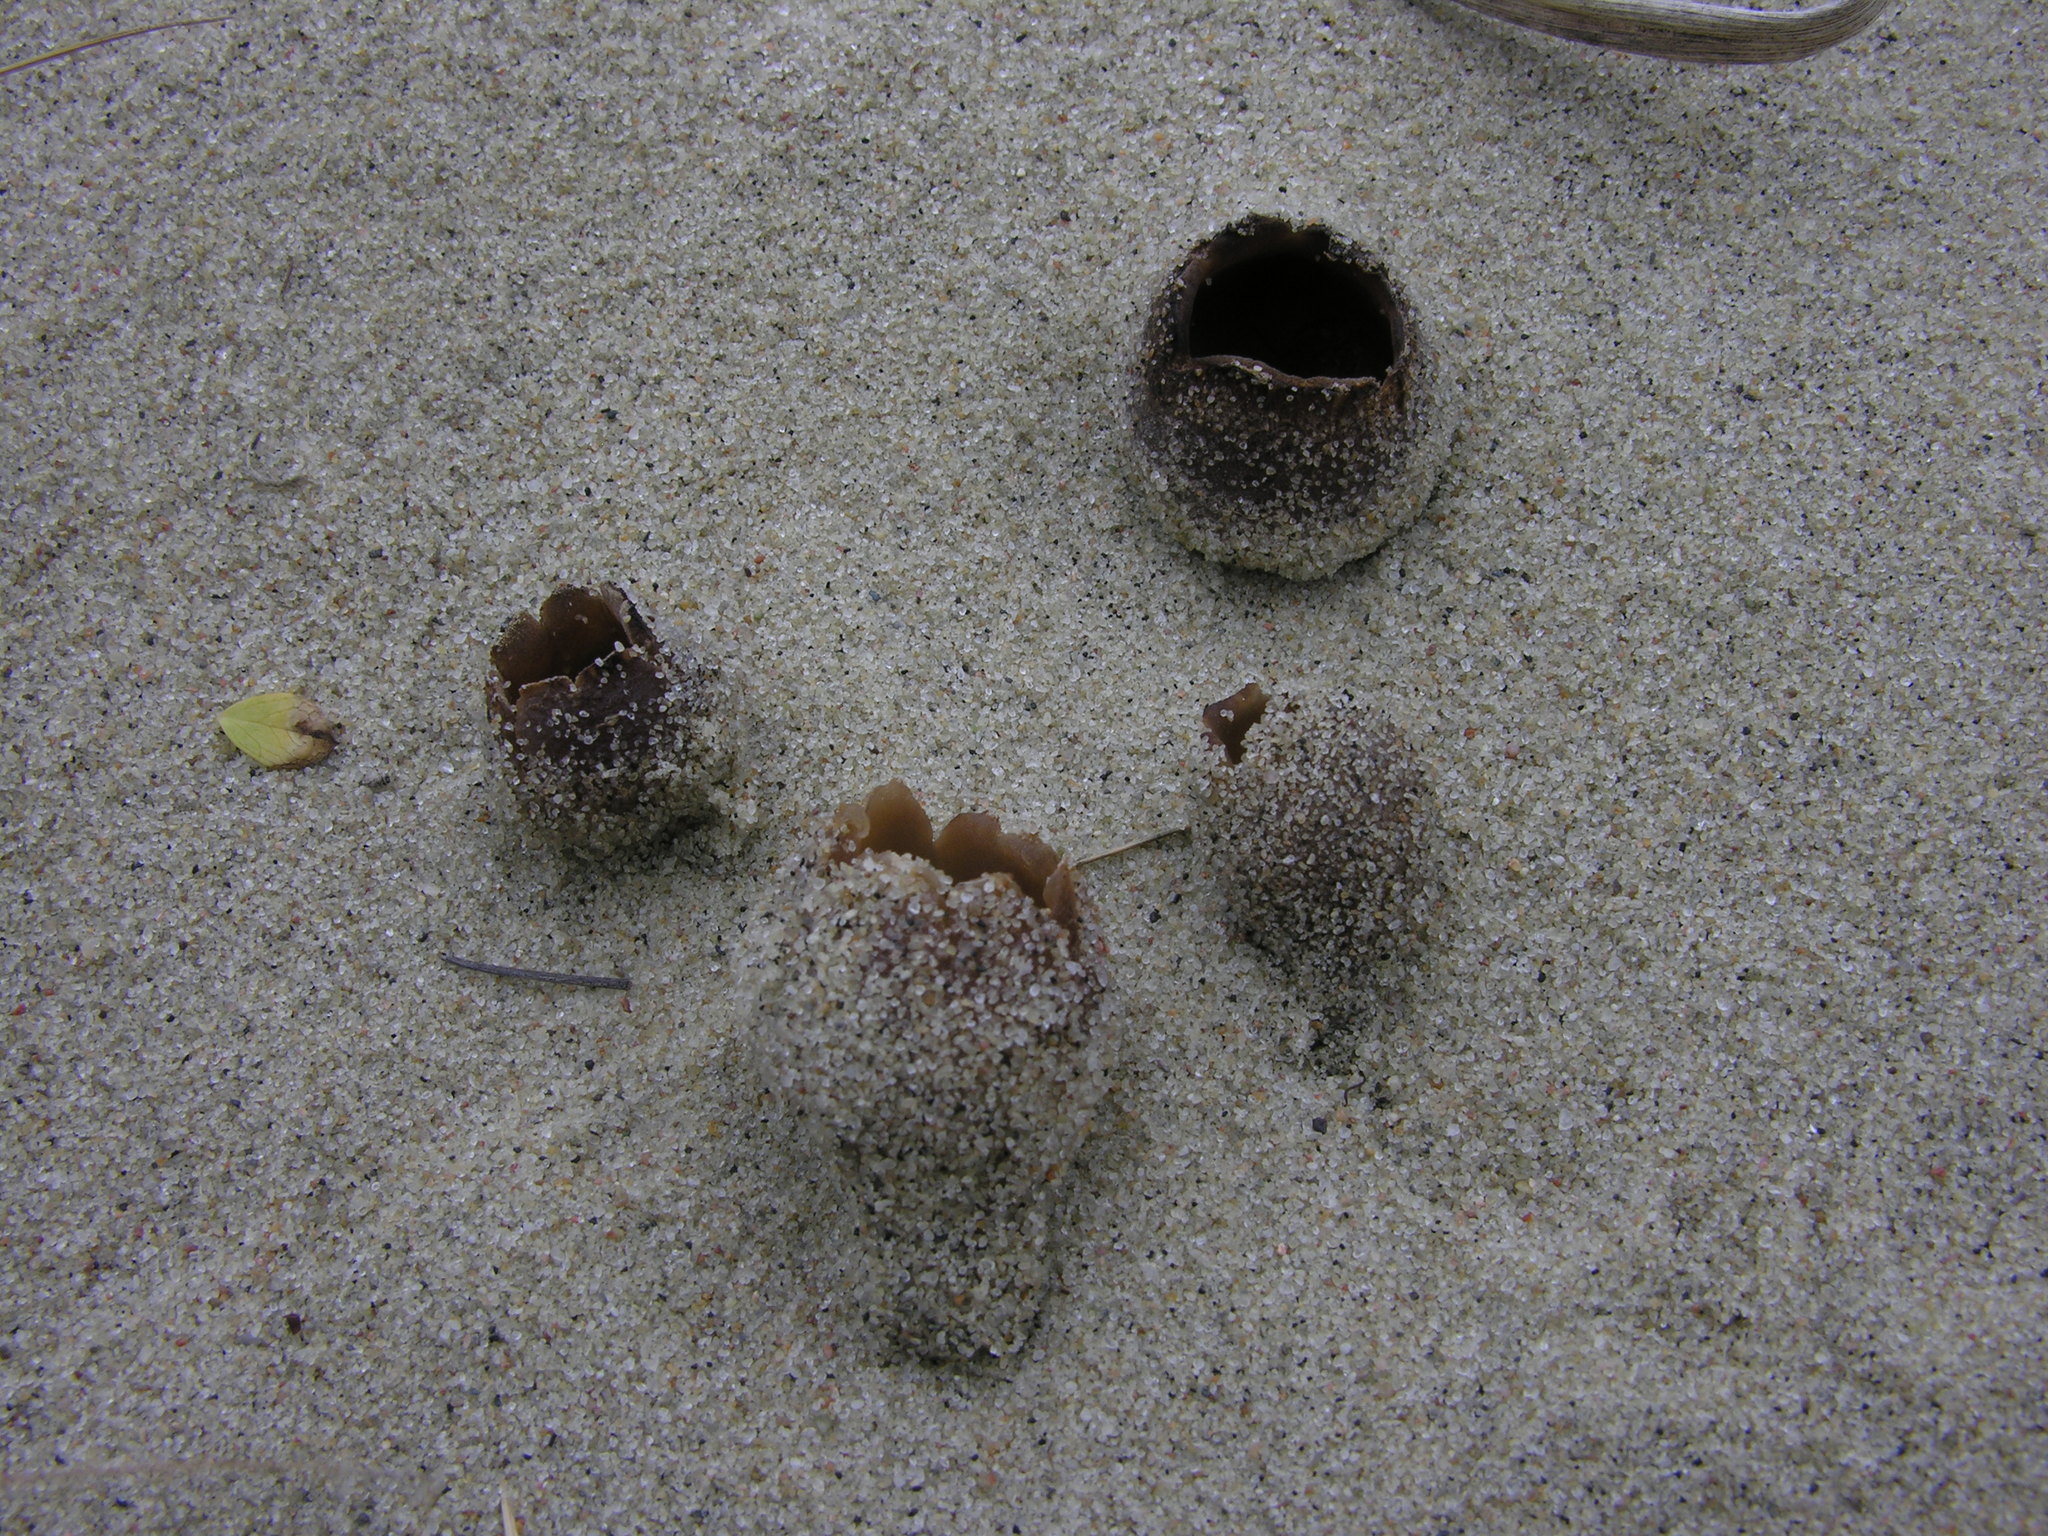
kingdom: Fungi
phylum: Ascomycota
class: Pezizomycetes
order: Pezizales
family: Pezizaceae
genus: Peziza
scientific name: Peziza ammophila
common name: Dune cup
